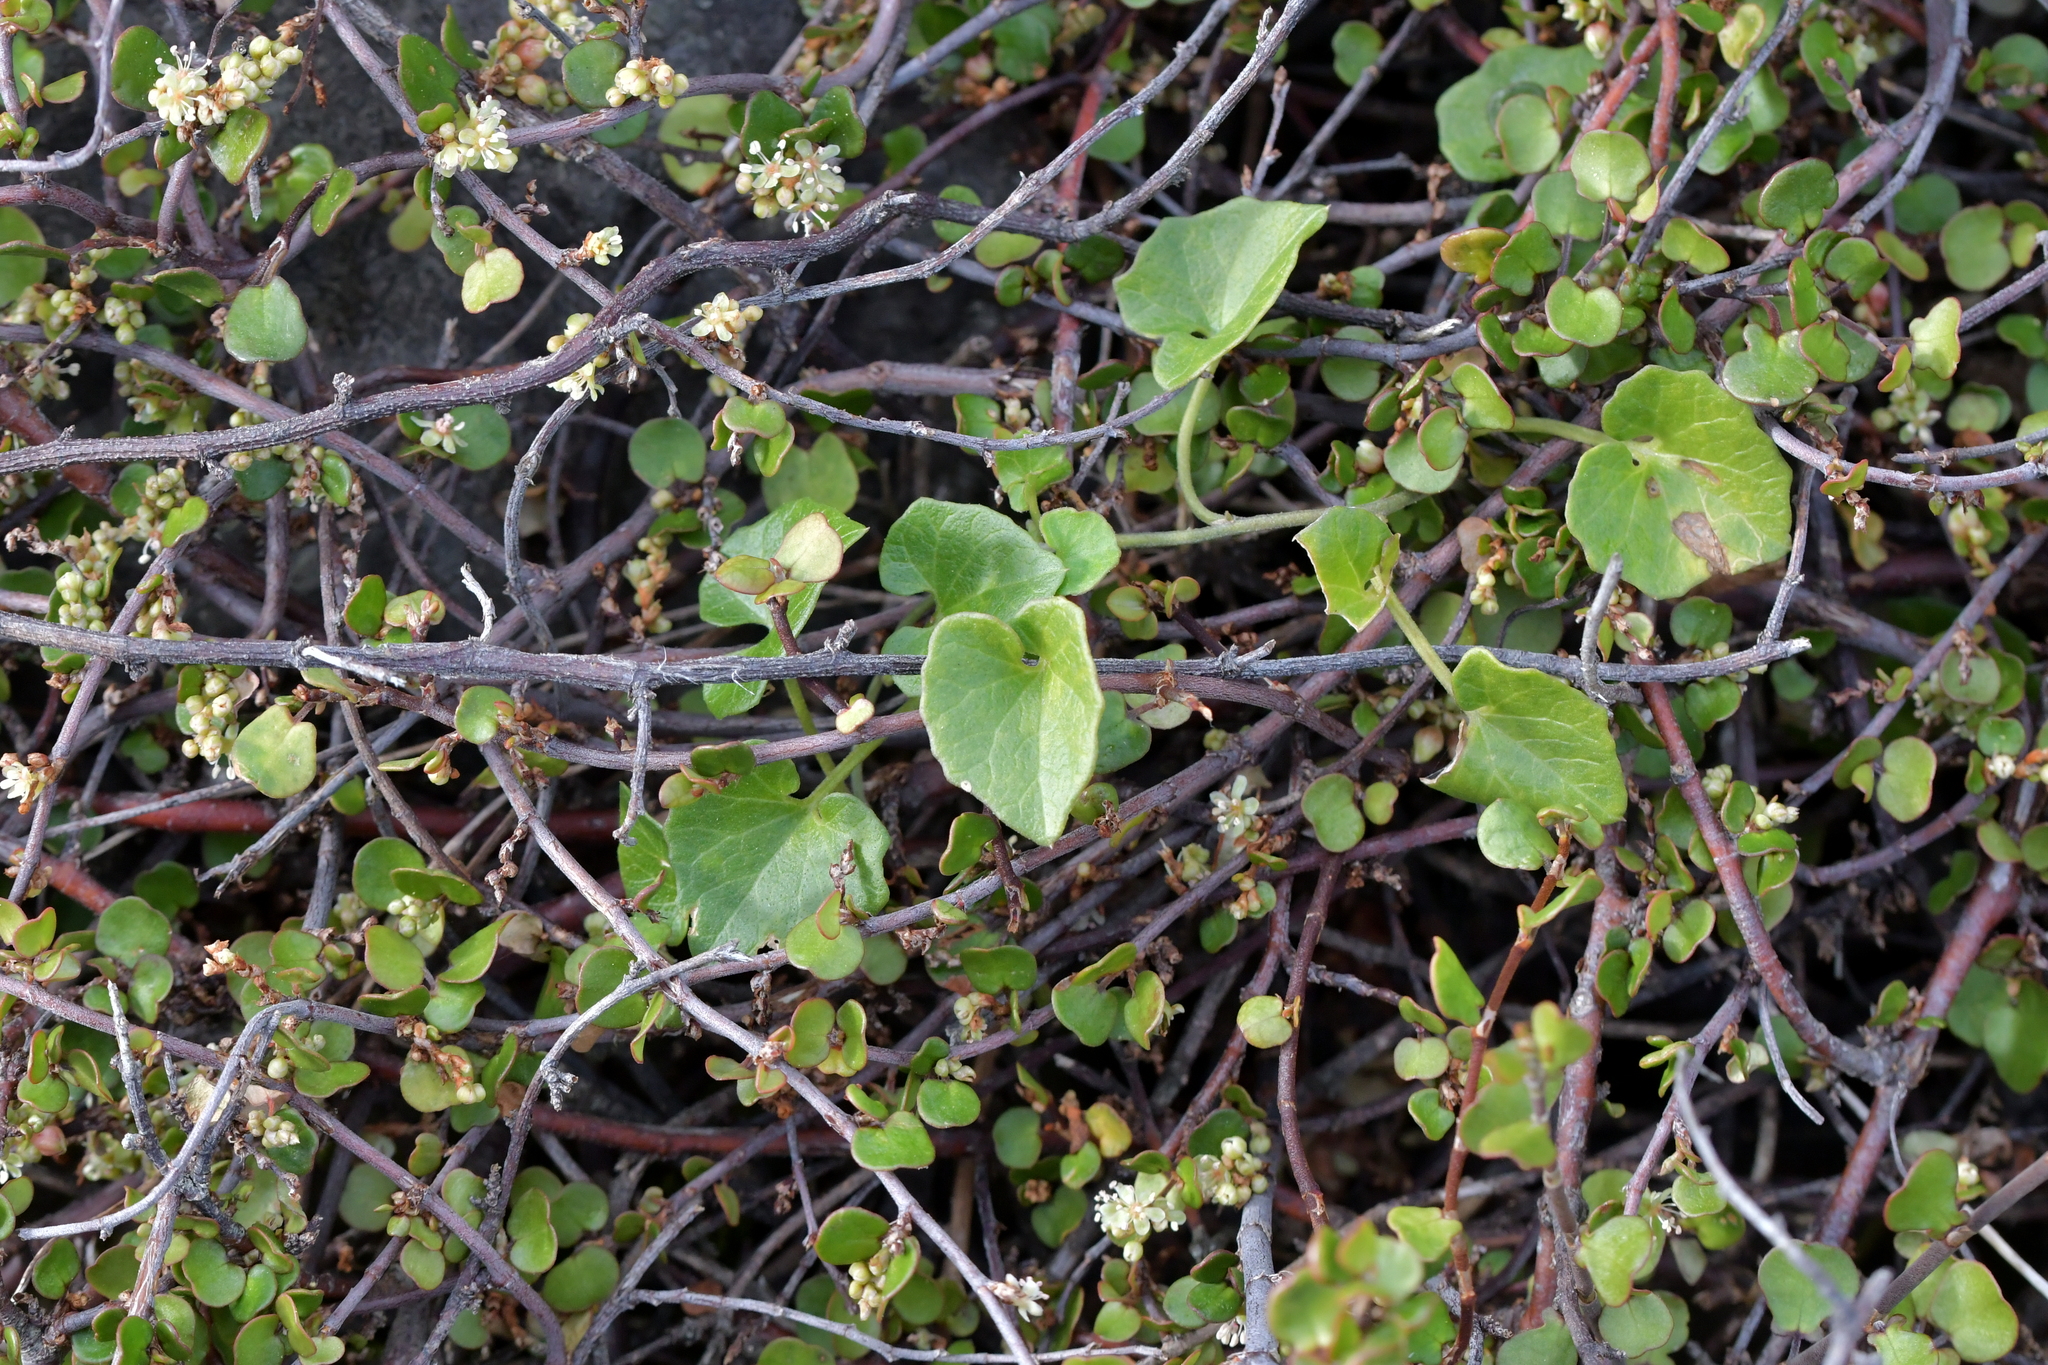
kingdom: Plantae
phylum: Tracheophyta
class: Magnoliopsida
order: Solanales
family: Convolvulaceae
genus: Calystegia
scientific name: Calystegia tuguriorum
